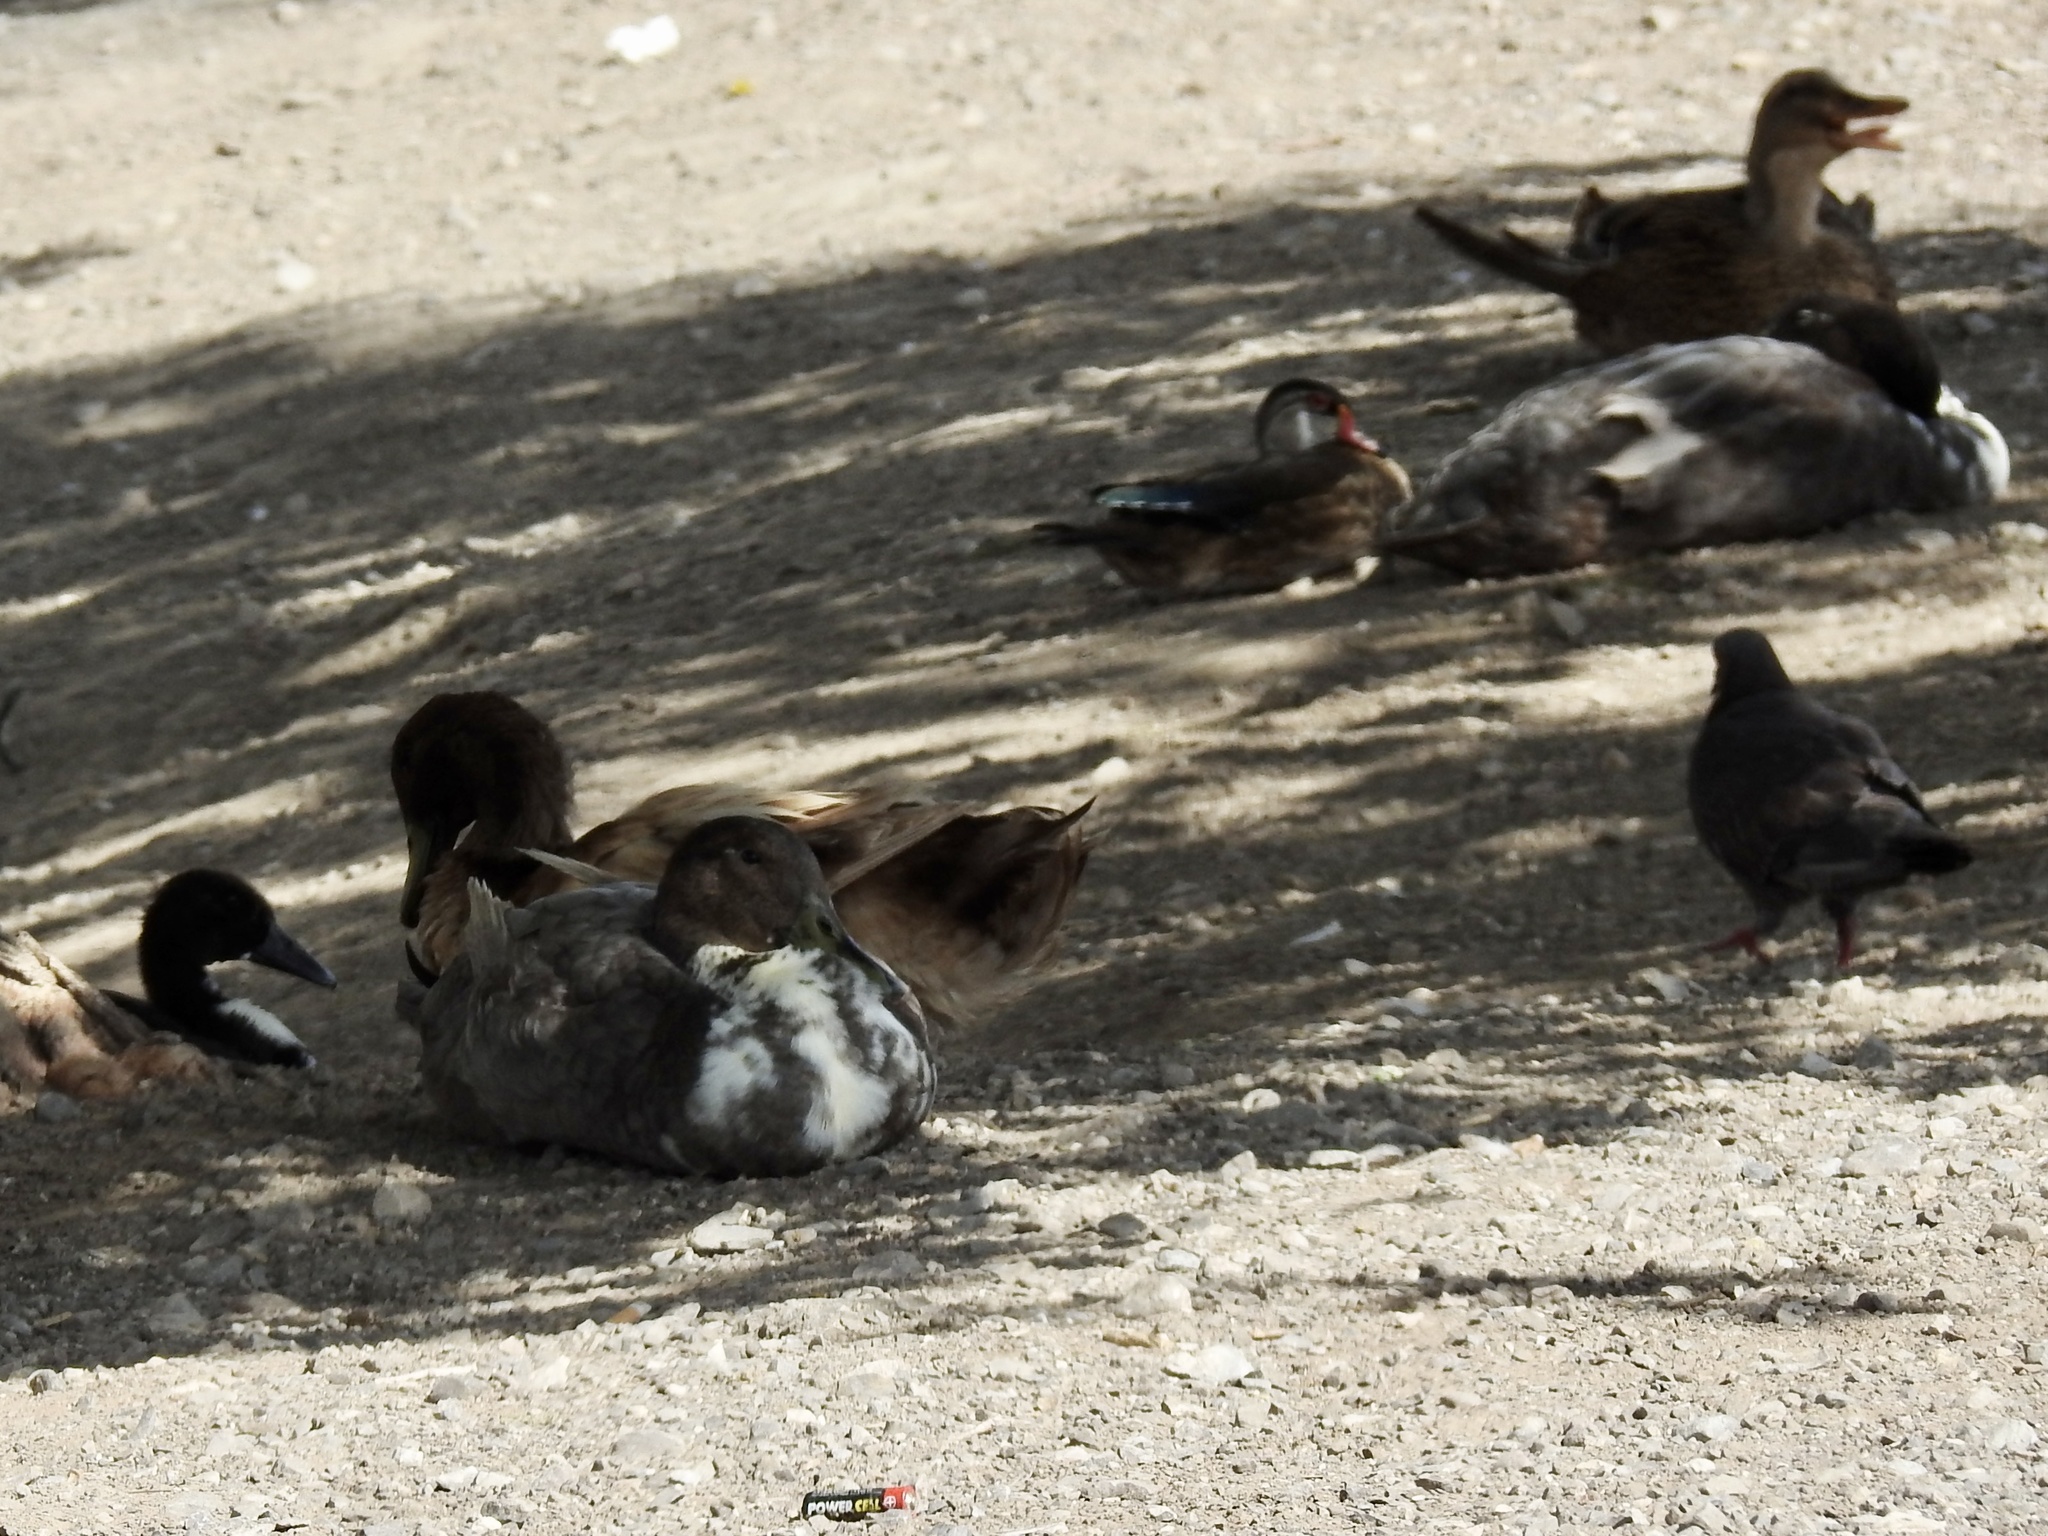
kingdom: Animalia
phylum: Chordata
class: Aves
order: Anseriformes
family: Anatidae
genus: Anas
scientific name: Anas platyrhynchos
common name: Mallard
